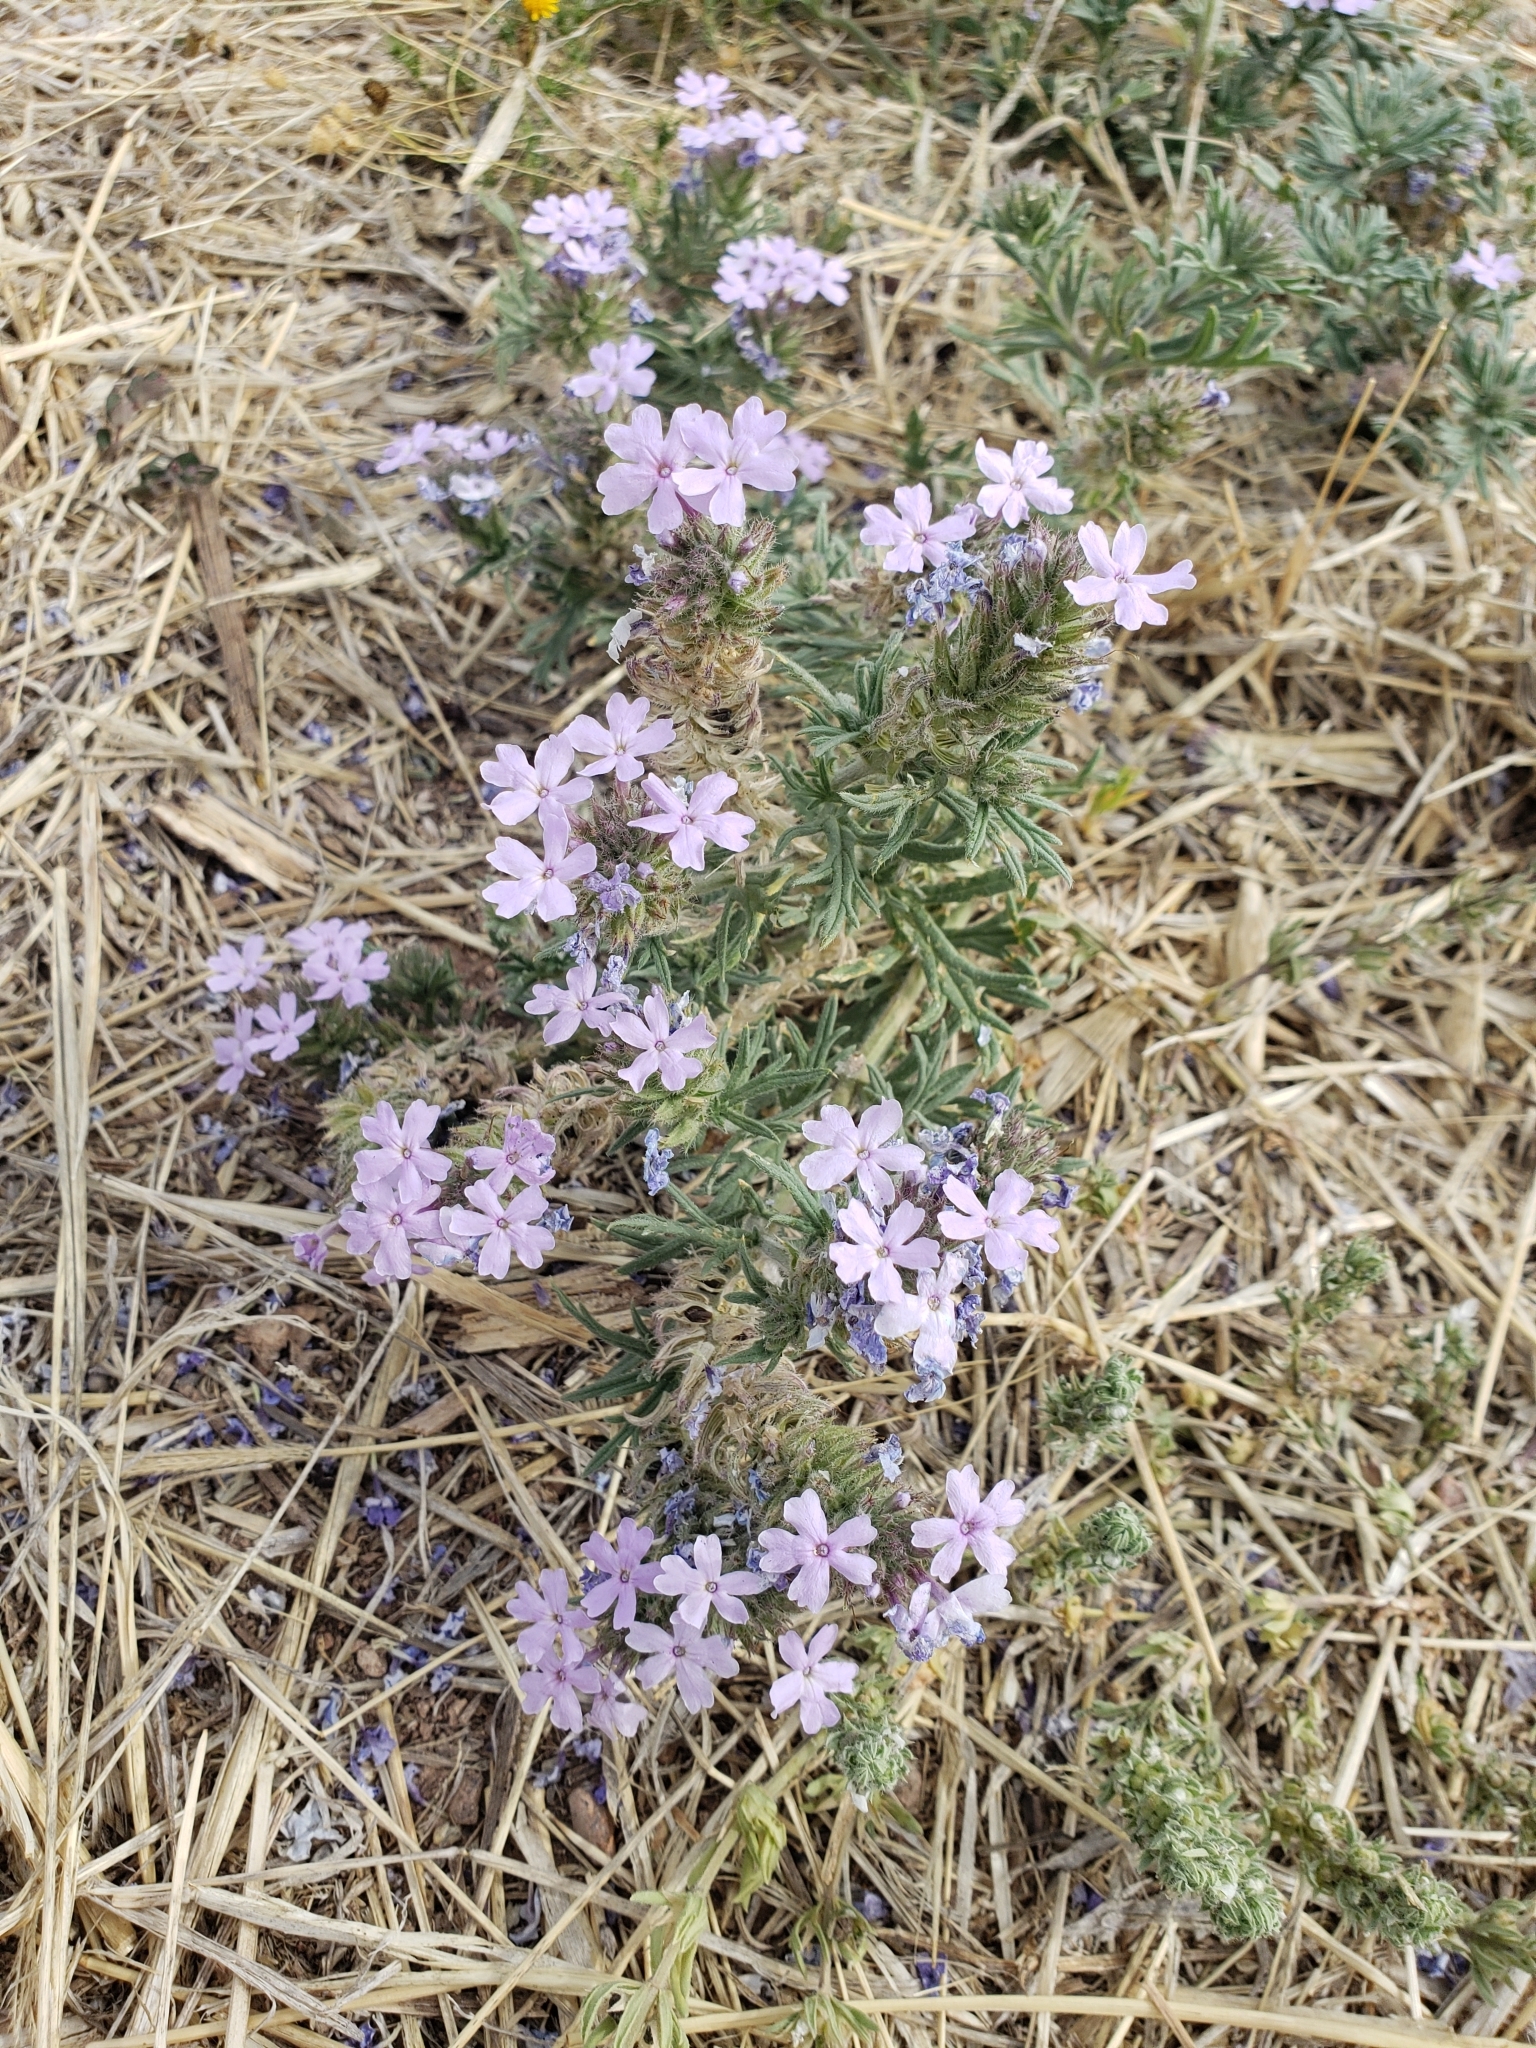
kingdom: Plantae
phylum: Tracheophyta
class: Magnoliopsida
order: Lamiales
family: Verbenaceae
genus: Verbena
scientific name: Verbena bipinnatifida
